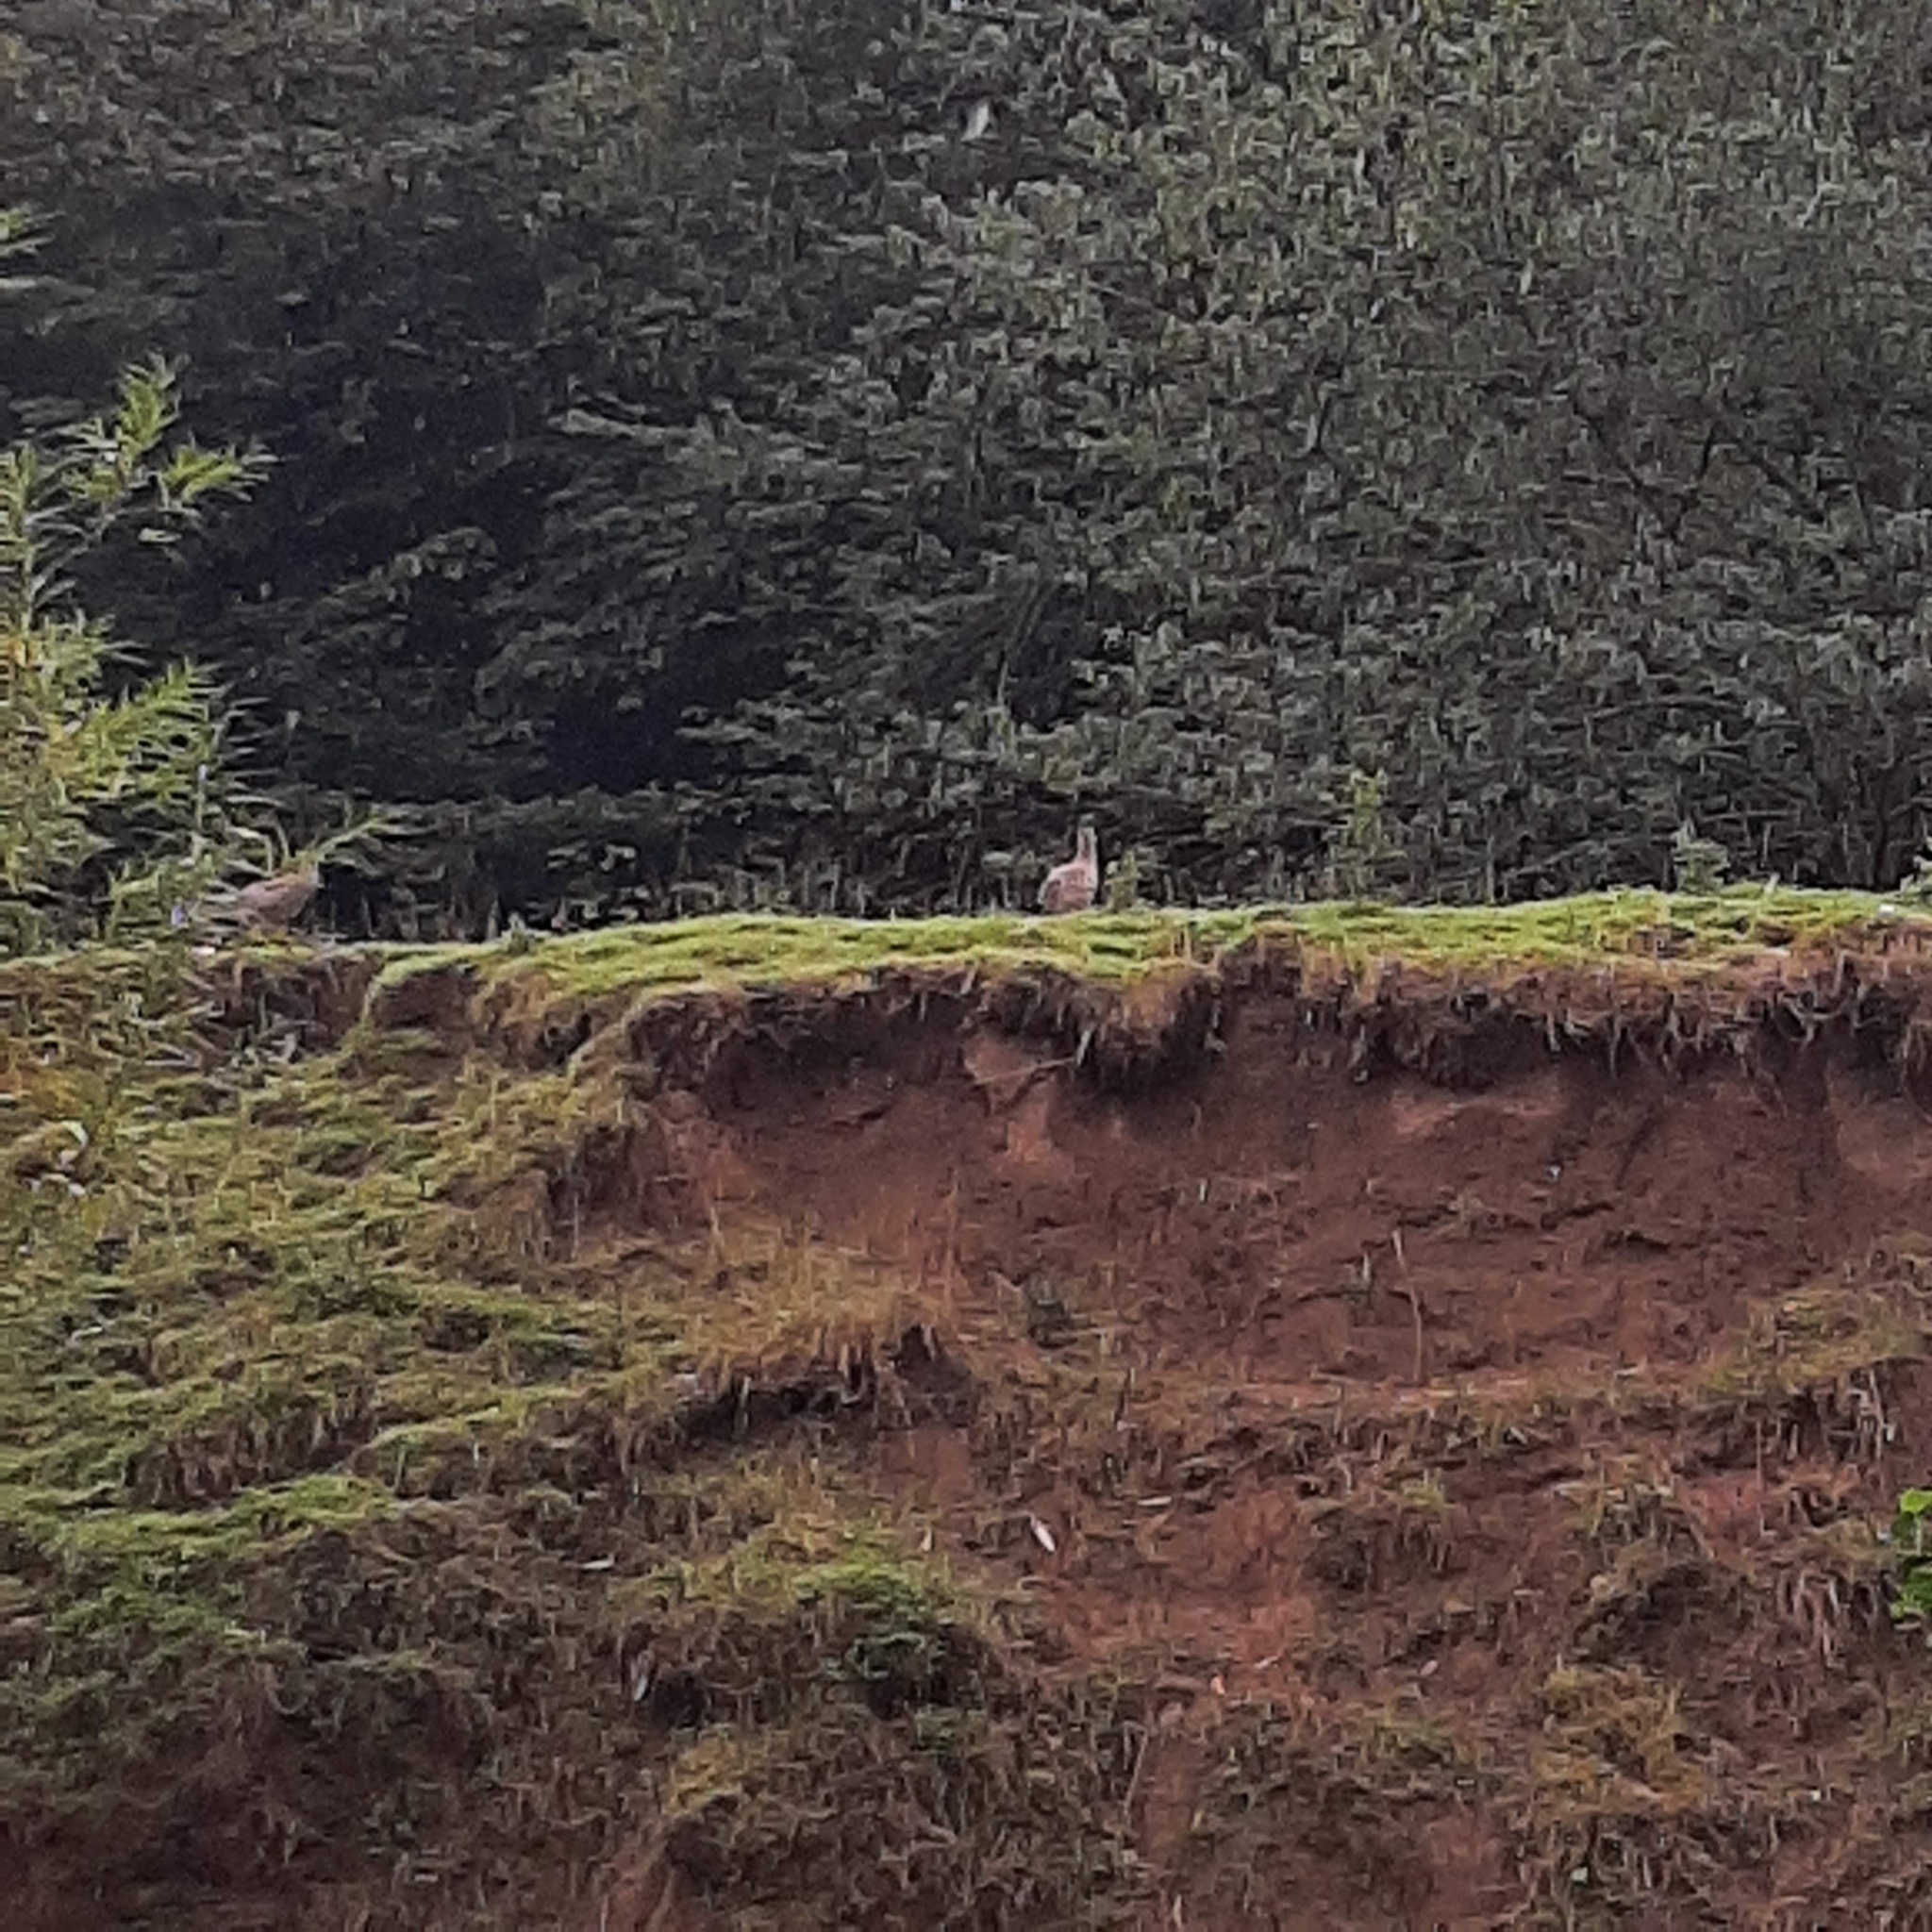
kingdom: Animalia
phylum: Chordata
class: Aves
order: Galliformes
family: Phasianidae
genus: Phasianus
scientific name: Phasianus colchicus
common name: Common pheasant
